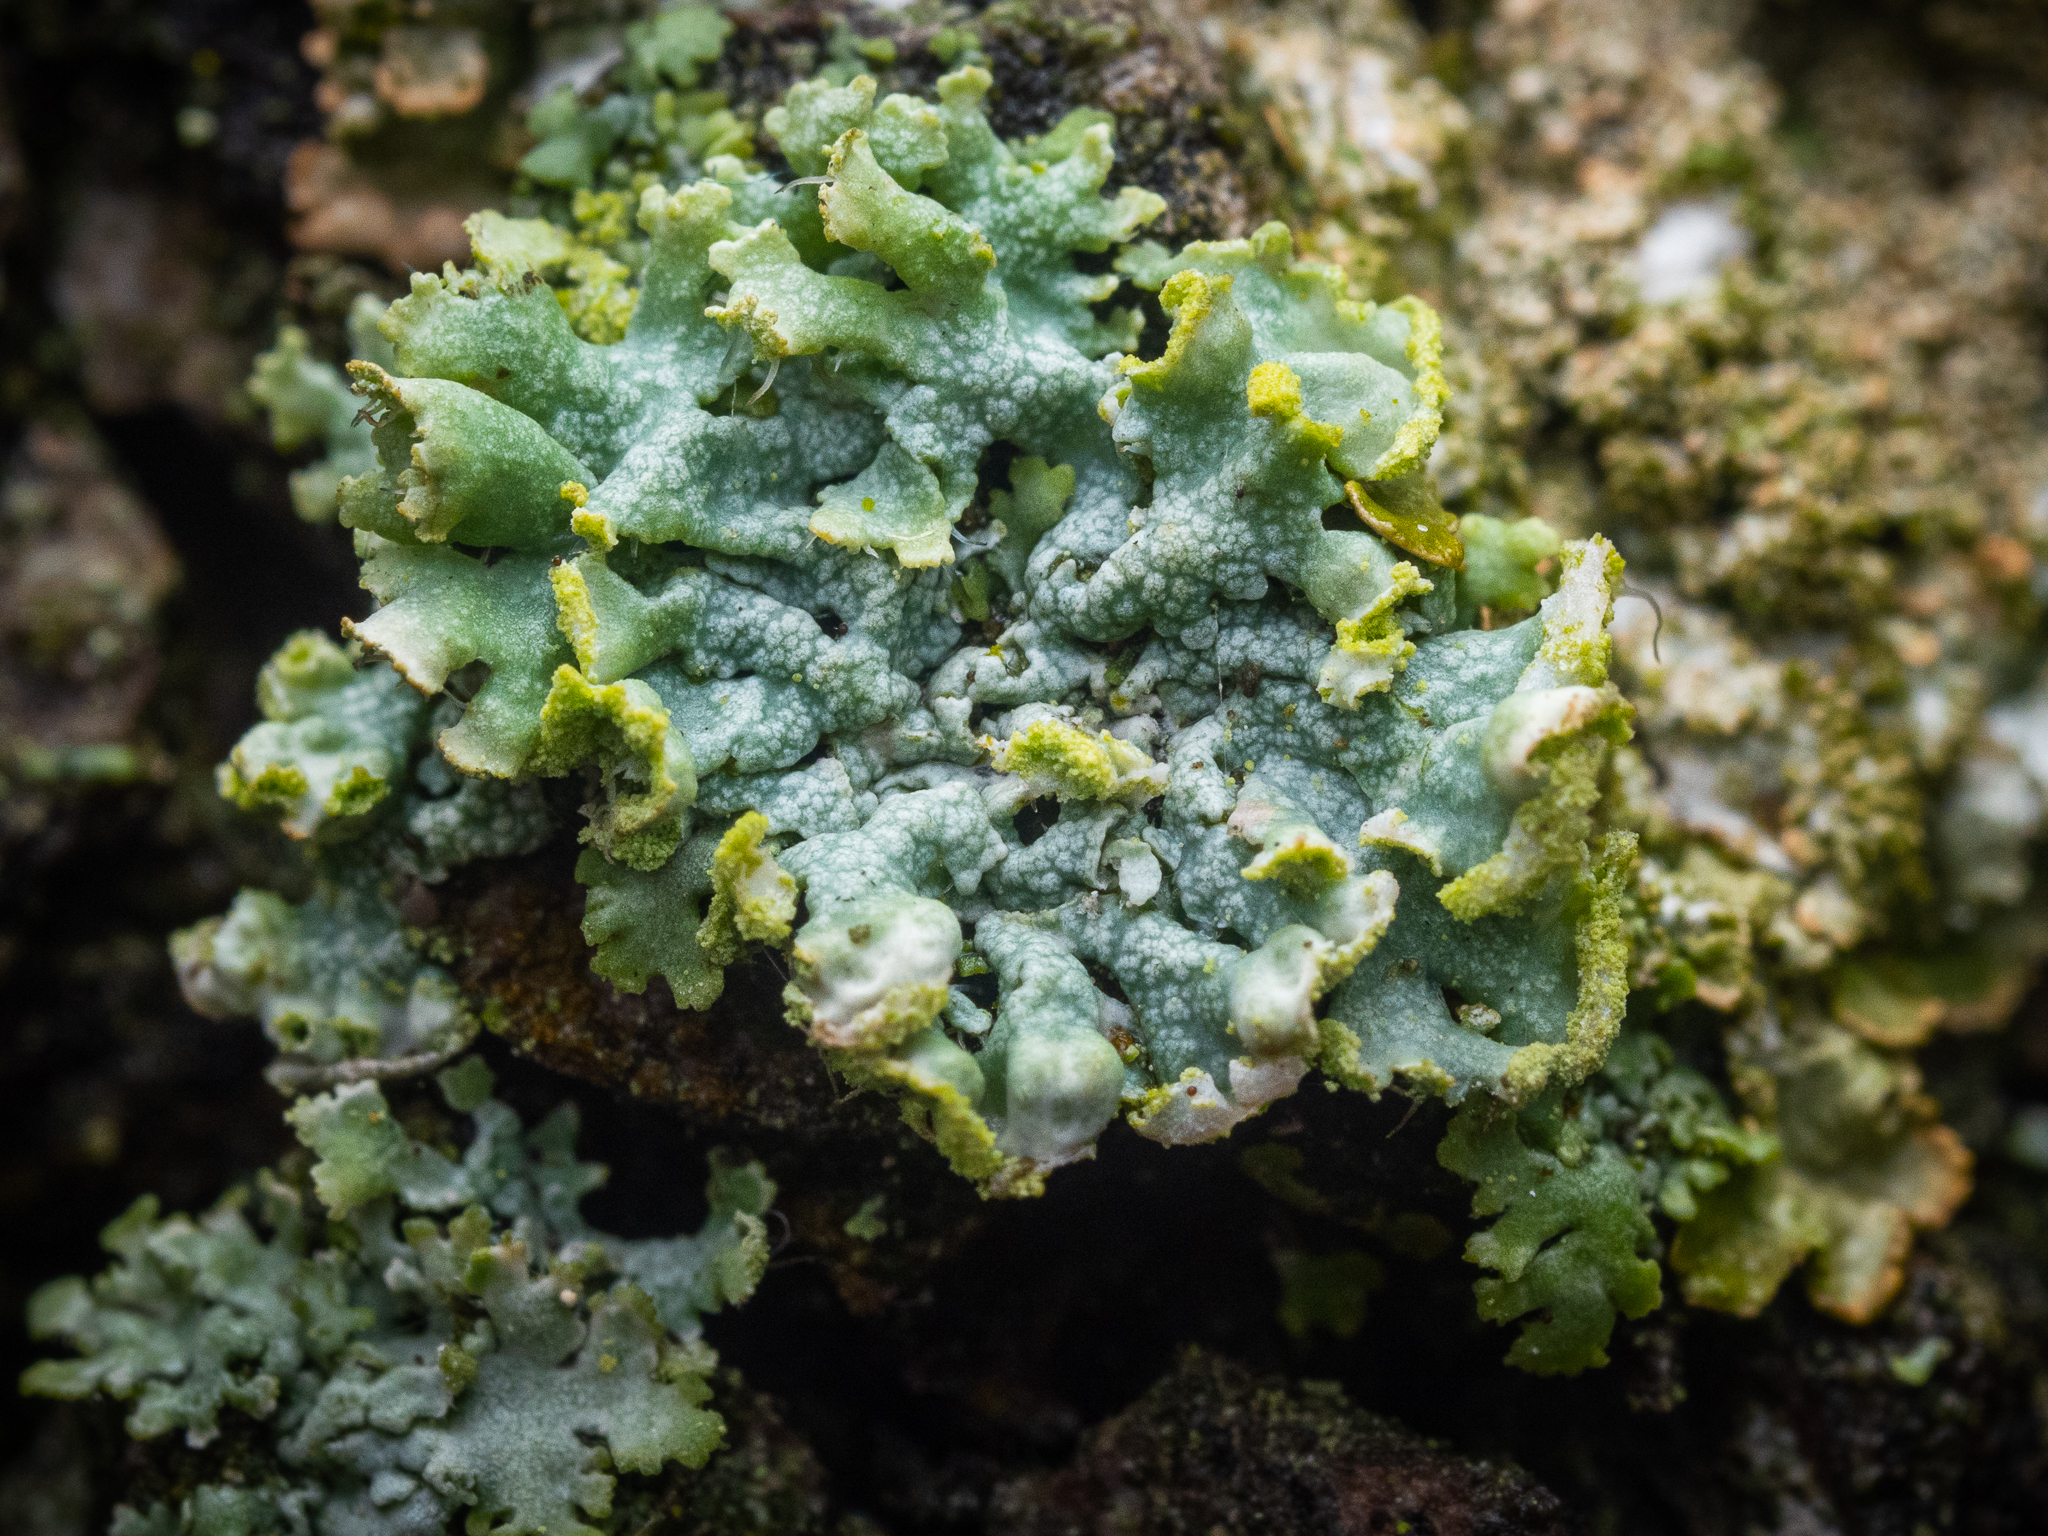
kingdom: Fungi
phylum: Ascomycota
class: Lecanoromycetes
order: Caliciales
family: Physciaceae
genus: Physcia
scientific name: Physcia adscendens
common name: Hooded rosette lichen
